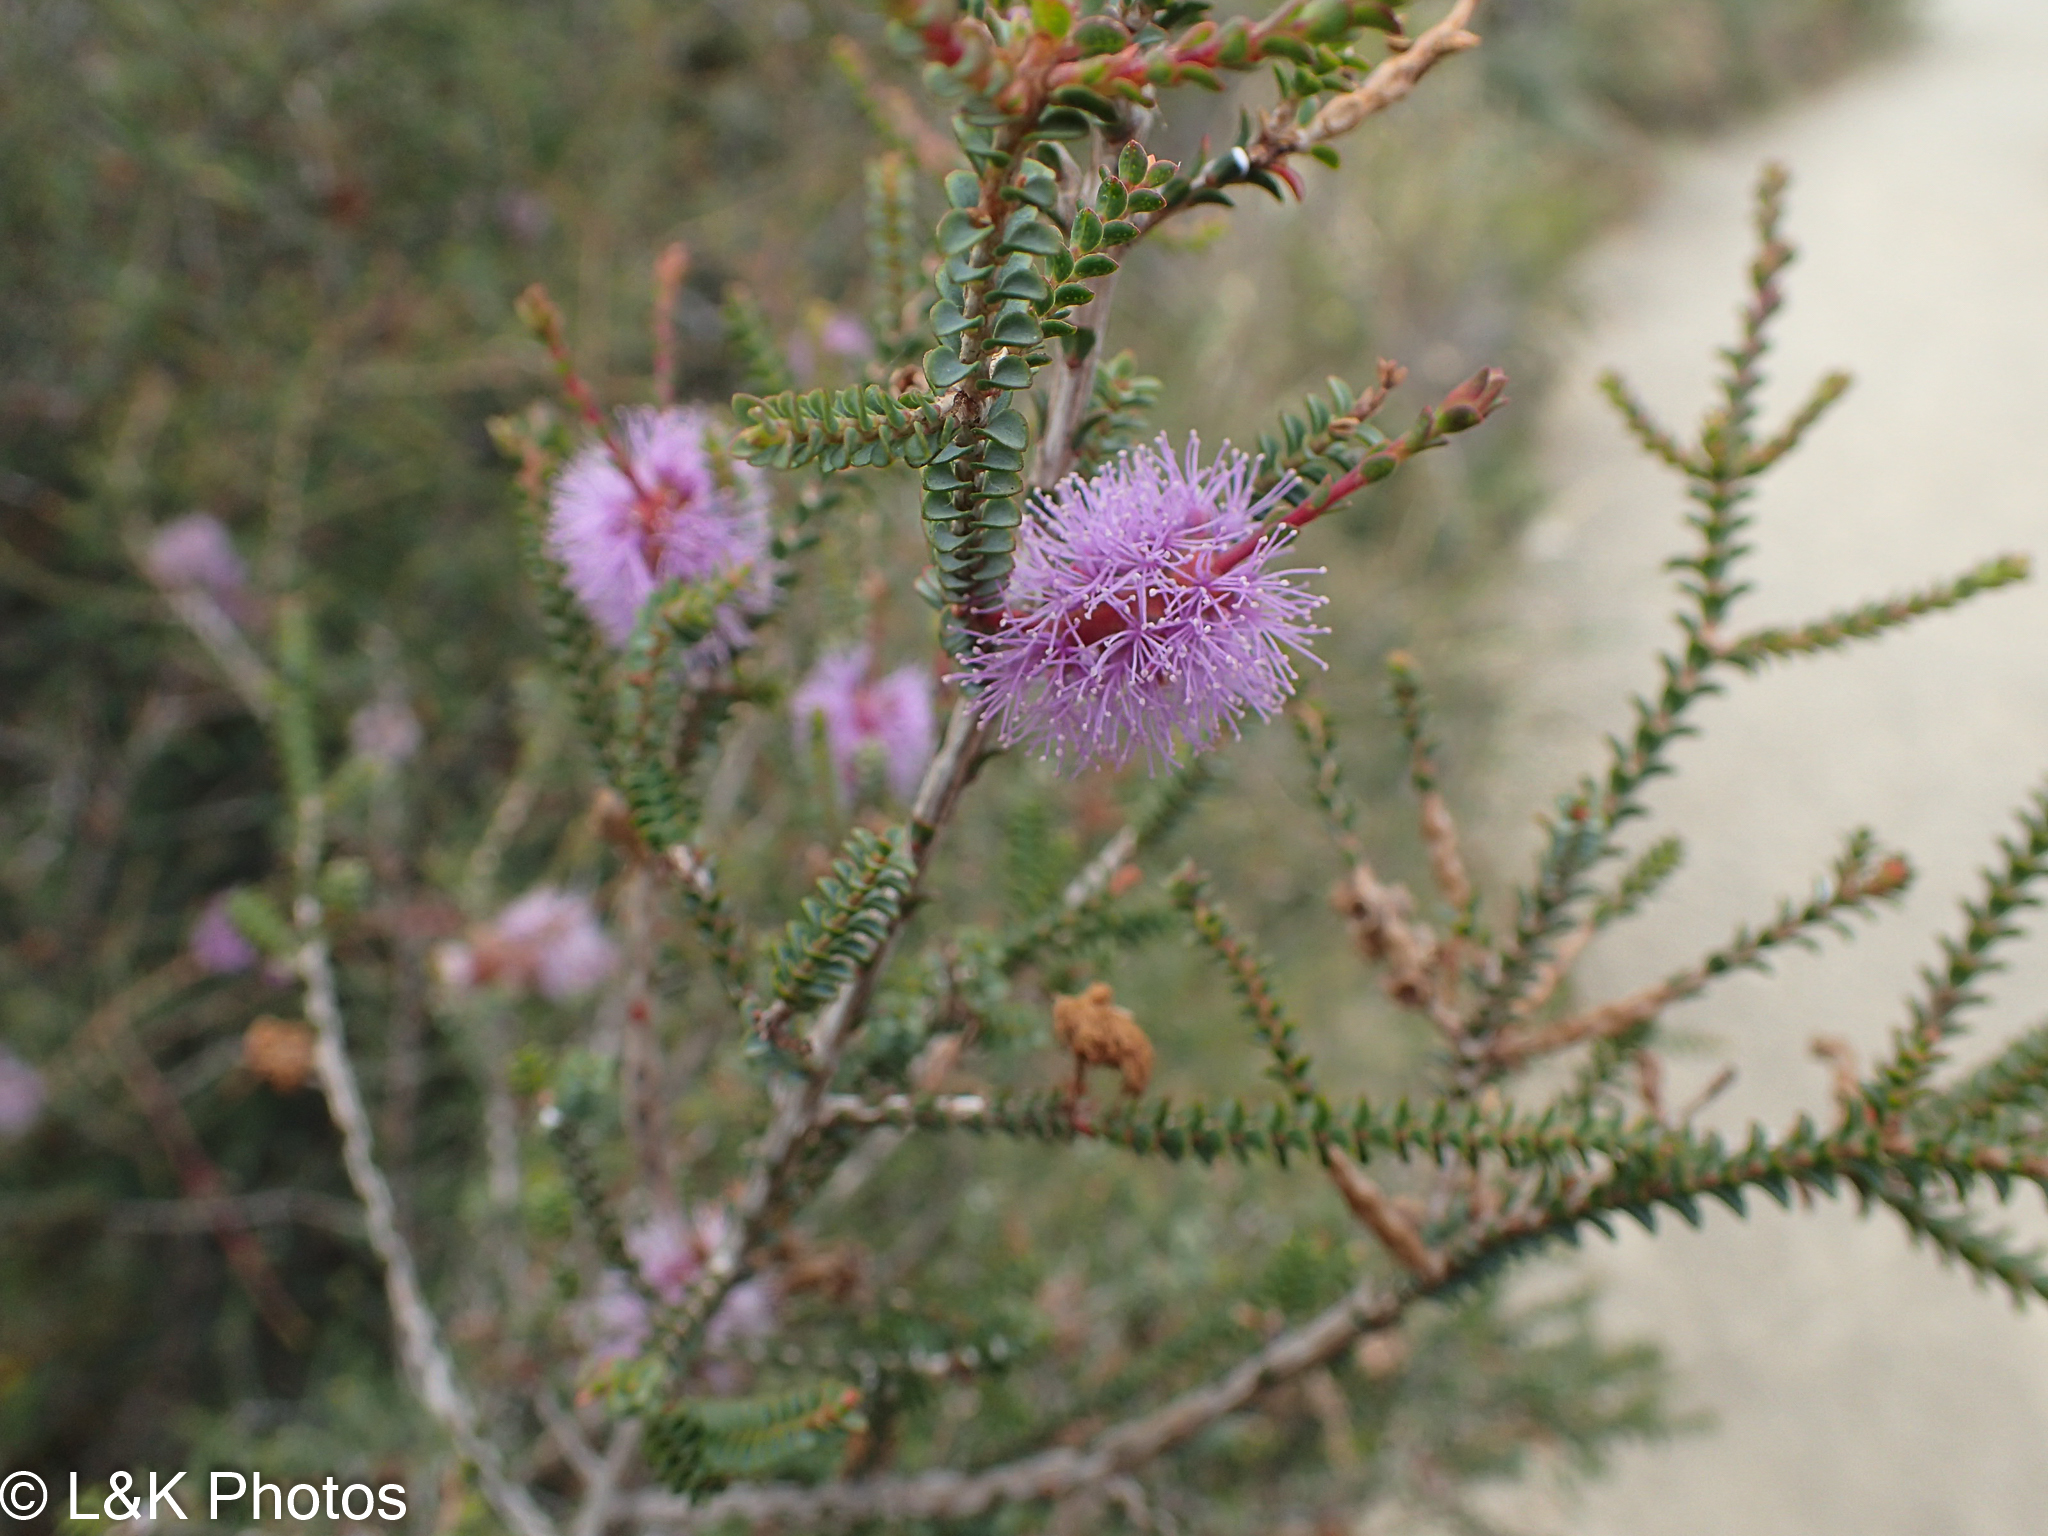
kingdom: Plantae
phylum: Tracheophyta
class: Magnoliopsida
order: Myrtales
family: Myrtaceae
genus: Melaleuca
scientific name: Melaleuca squamea
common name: Swamp melaleuca
